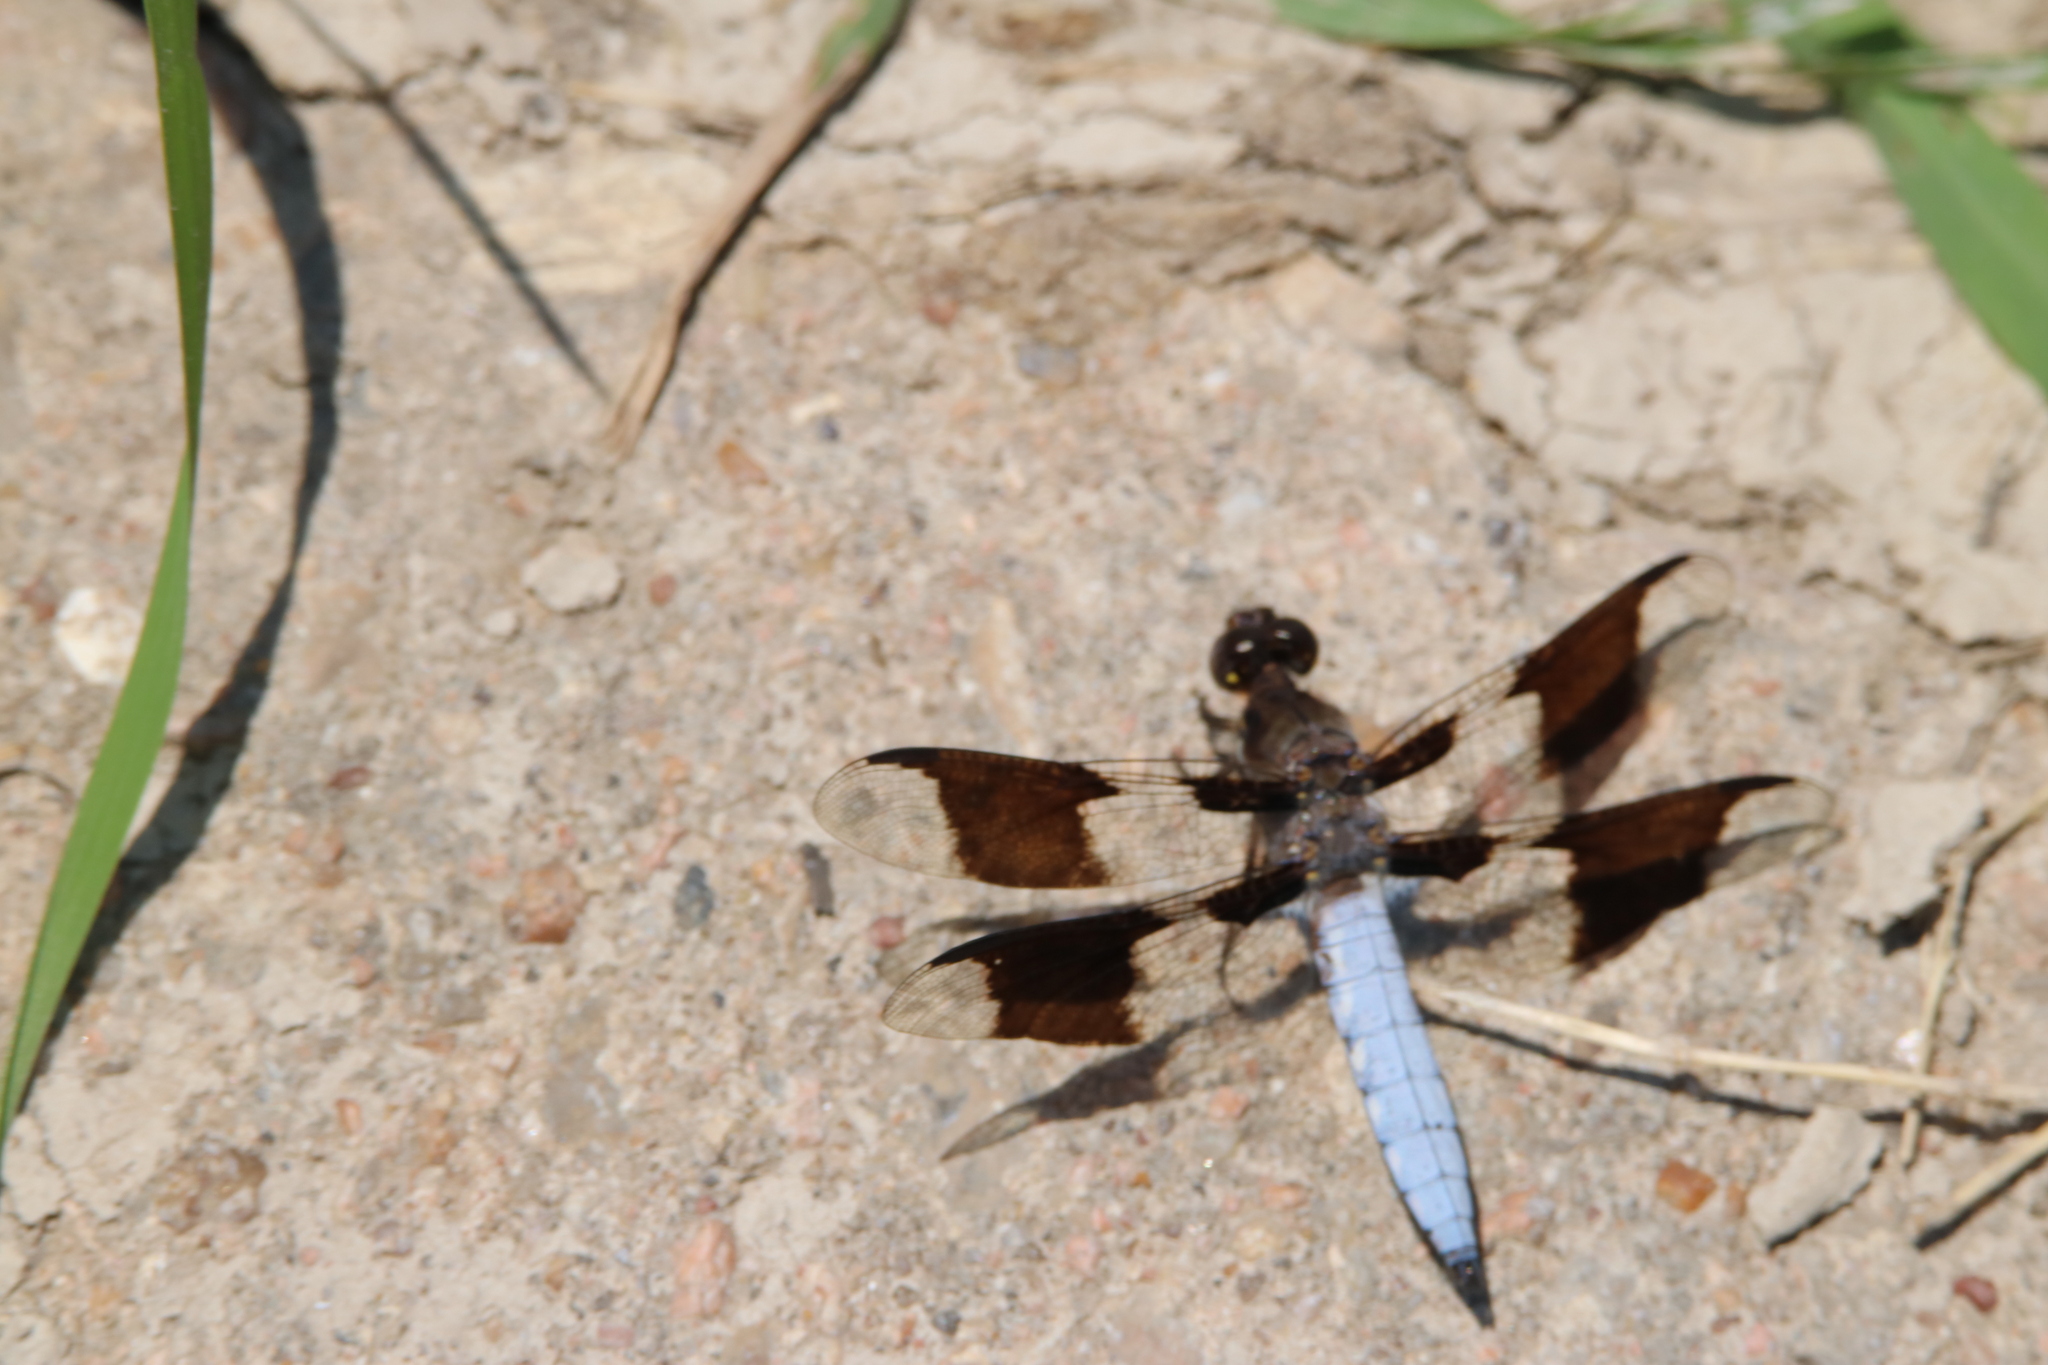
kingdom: Animalia
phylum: Arthropoda
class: Insecta
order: Odonata
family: Libellulidae
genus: Plathemis
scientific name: Plathemis lydia
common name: Common whitetail
